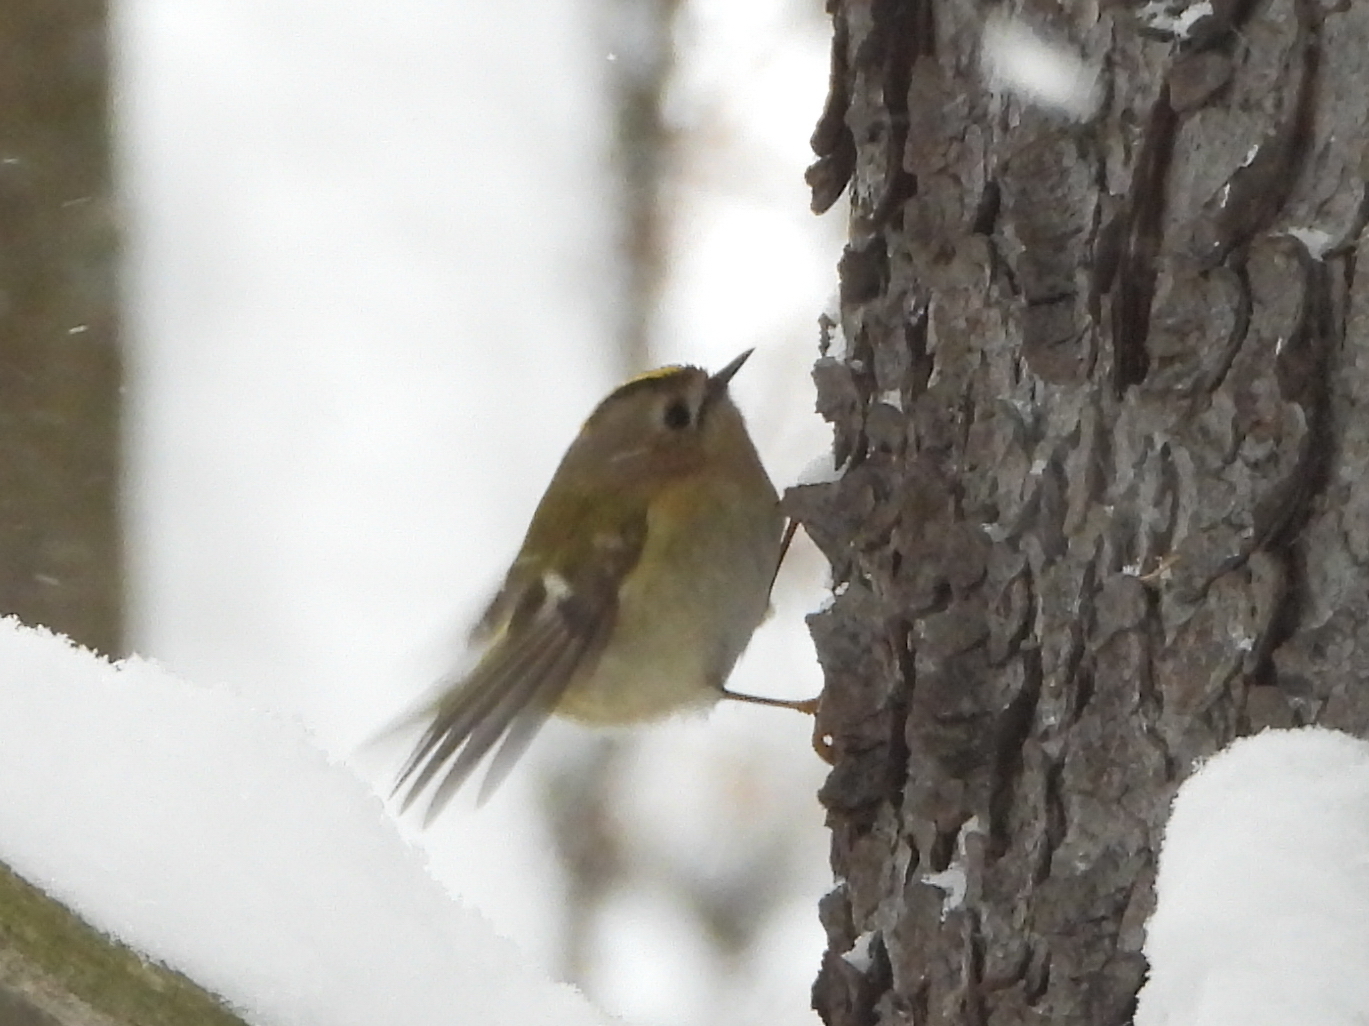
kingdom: Animalia
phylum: Chordata
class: Aves
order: Passeriformes
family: Regulidae
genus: Regulus
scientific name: Regulus regulus
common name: Goldcrest
